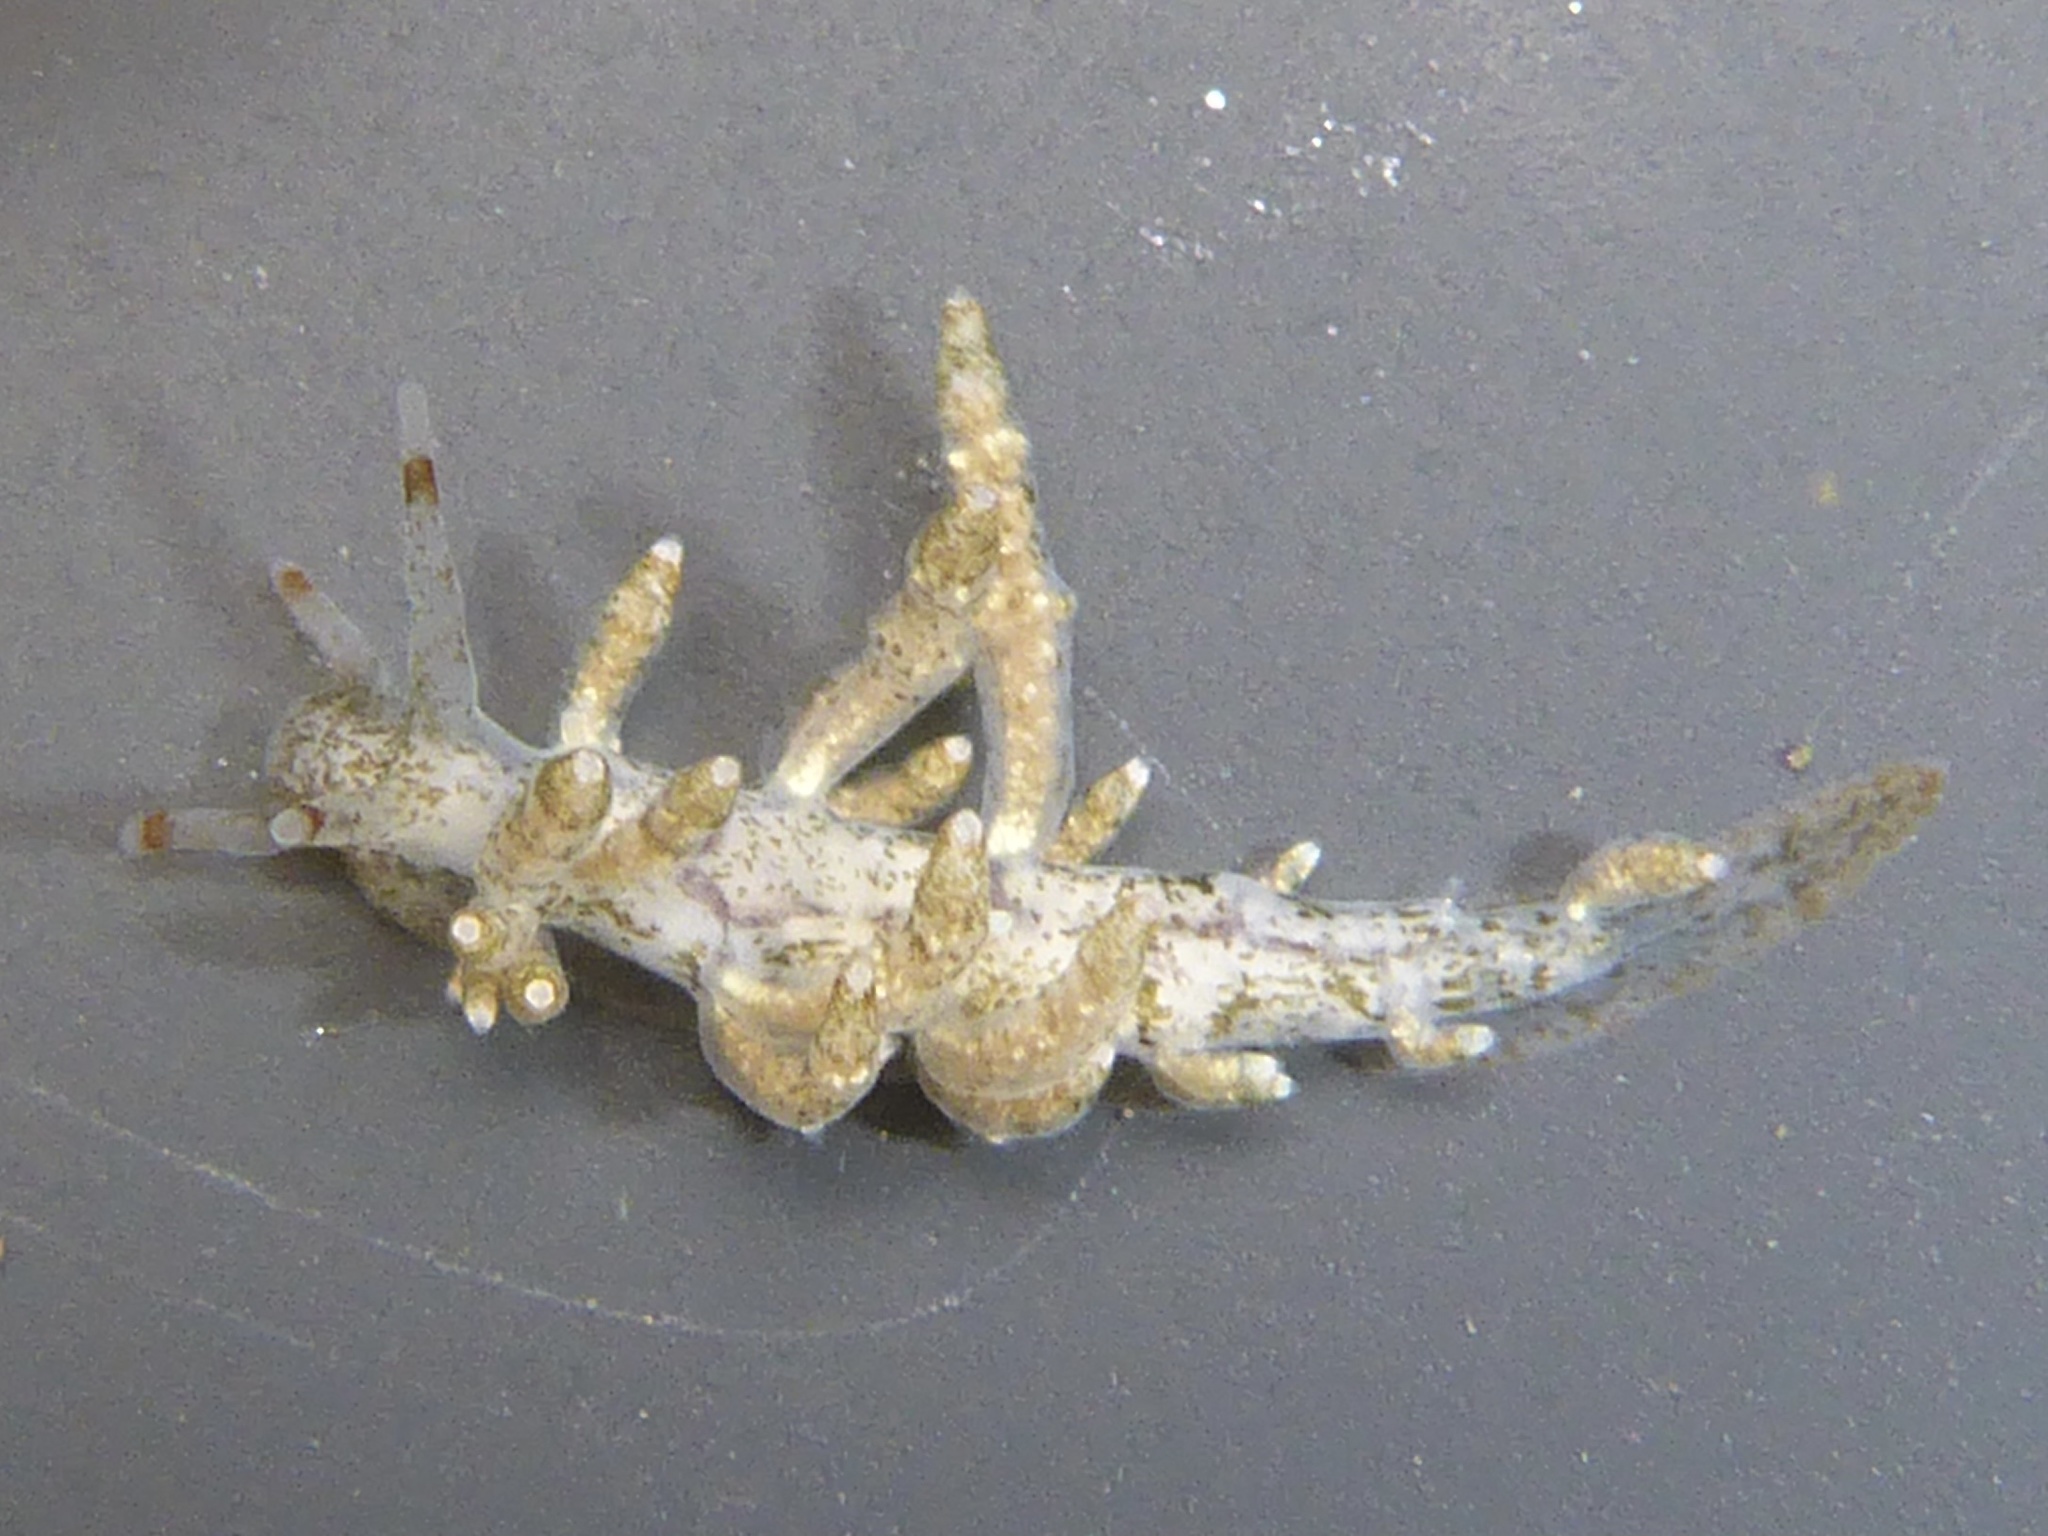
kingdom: Animalia
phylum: Mollusca
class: Gastropoda
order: Nudibranchia
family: Eubranchidae
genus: Eubranchus
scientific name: Eubranchus rustyus
